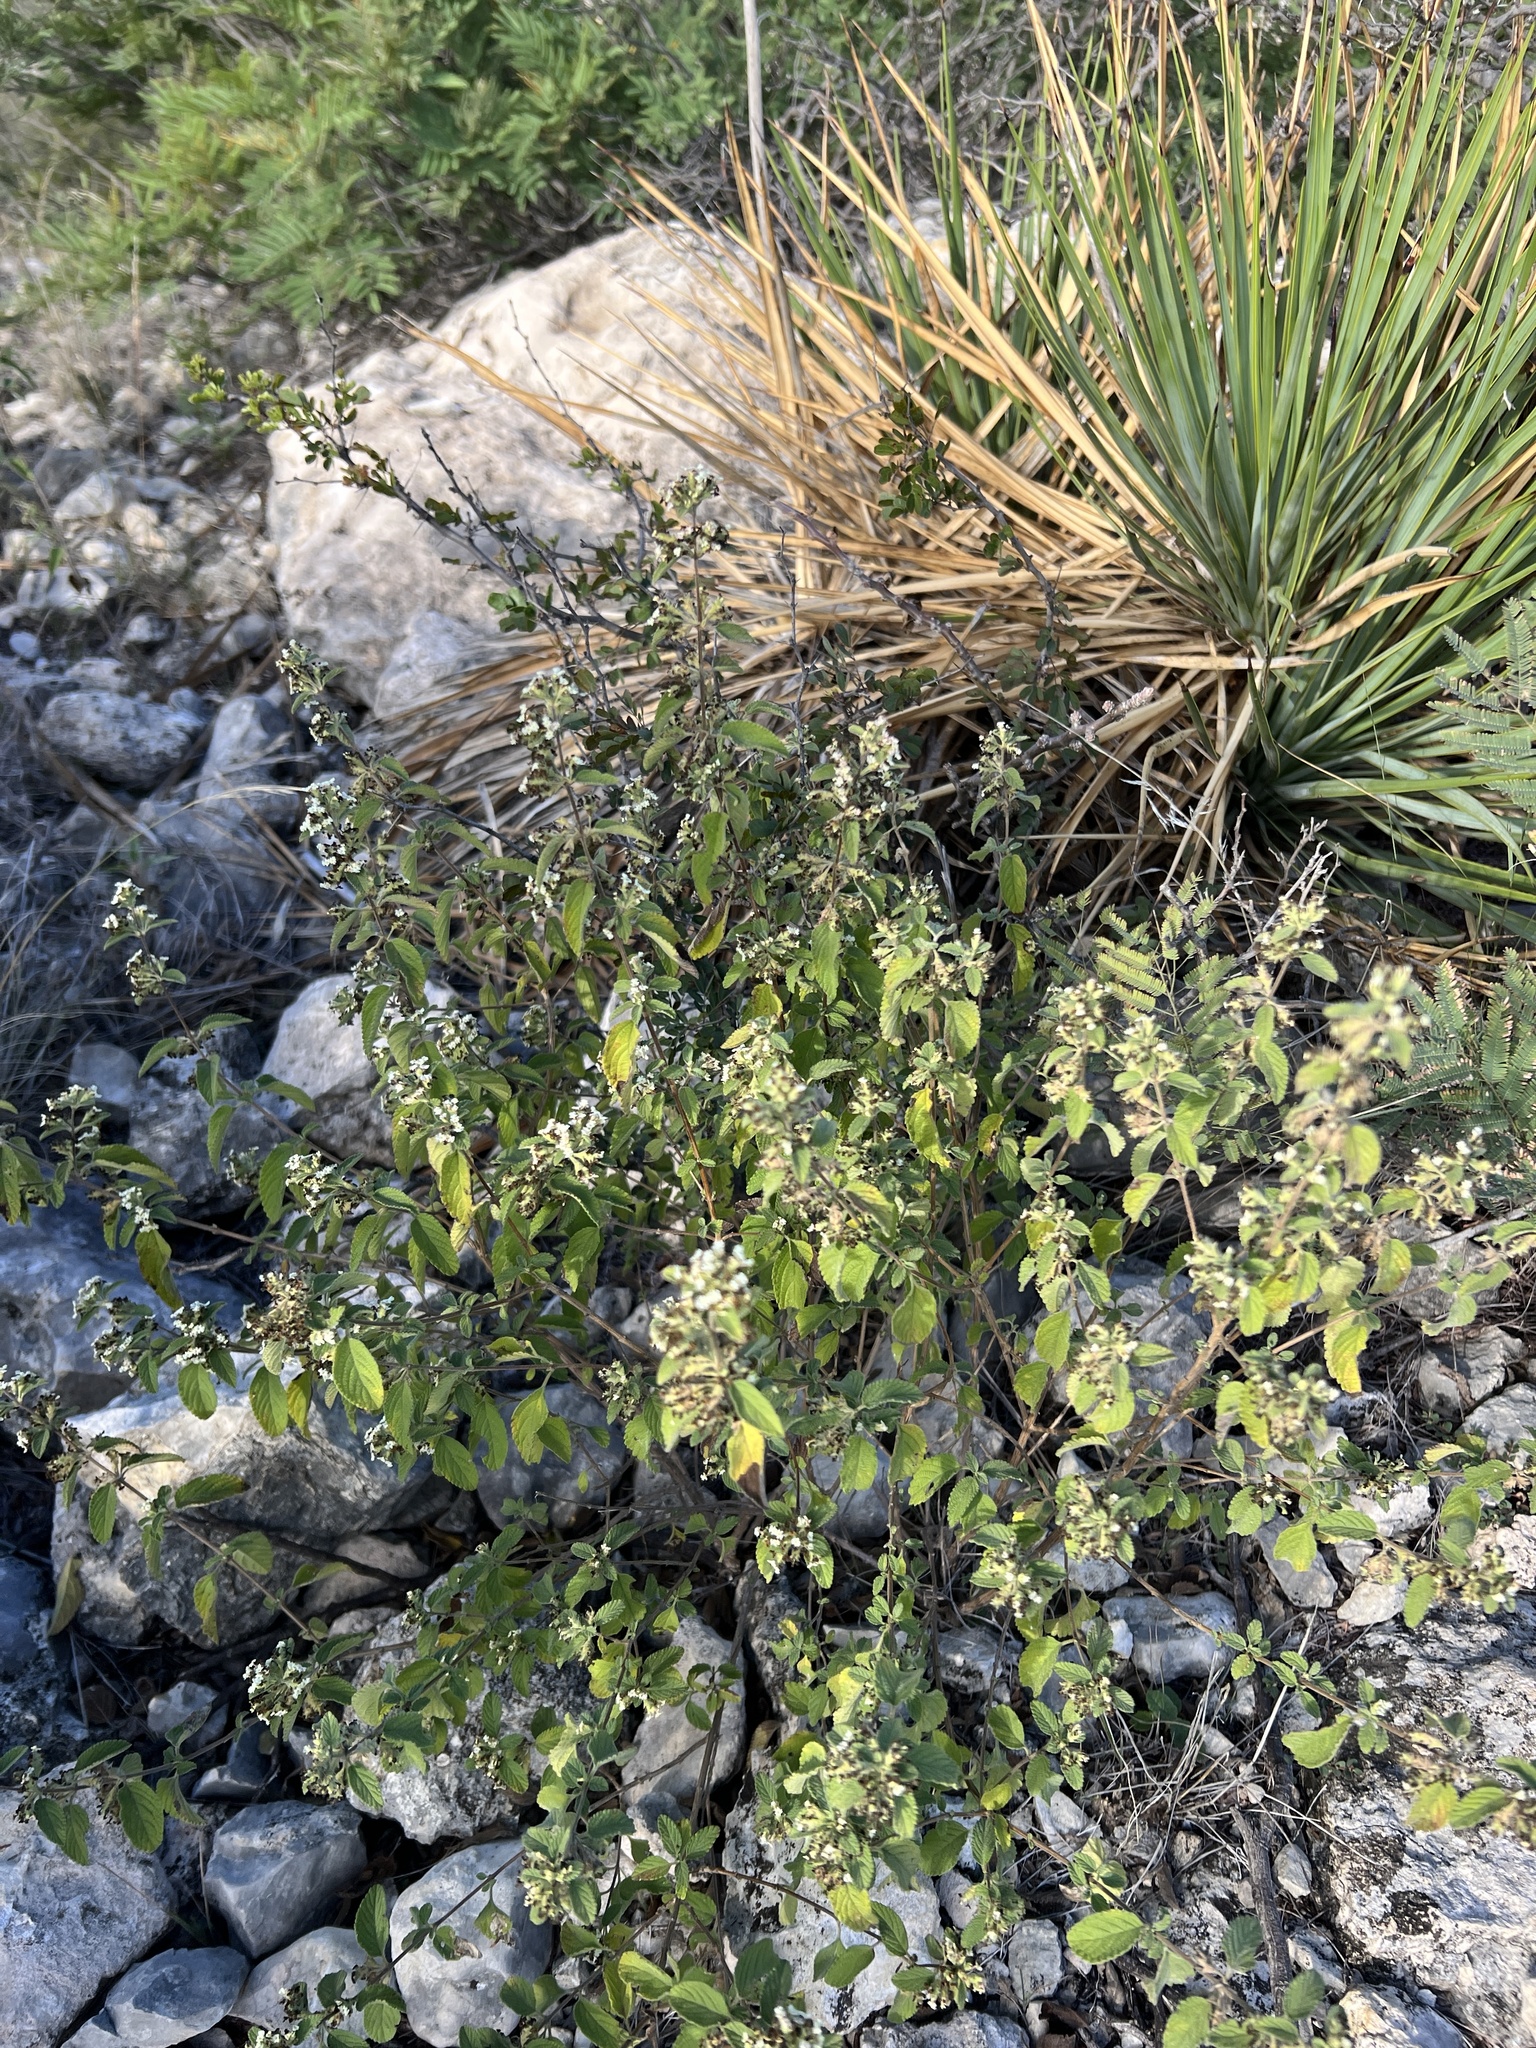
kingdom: Plantae
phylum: Tracheophyta
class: Magnoliopsida
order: Lamiales
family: Verbenaceae
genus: Lippia
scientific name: Lippia origanoides
